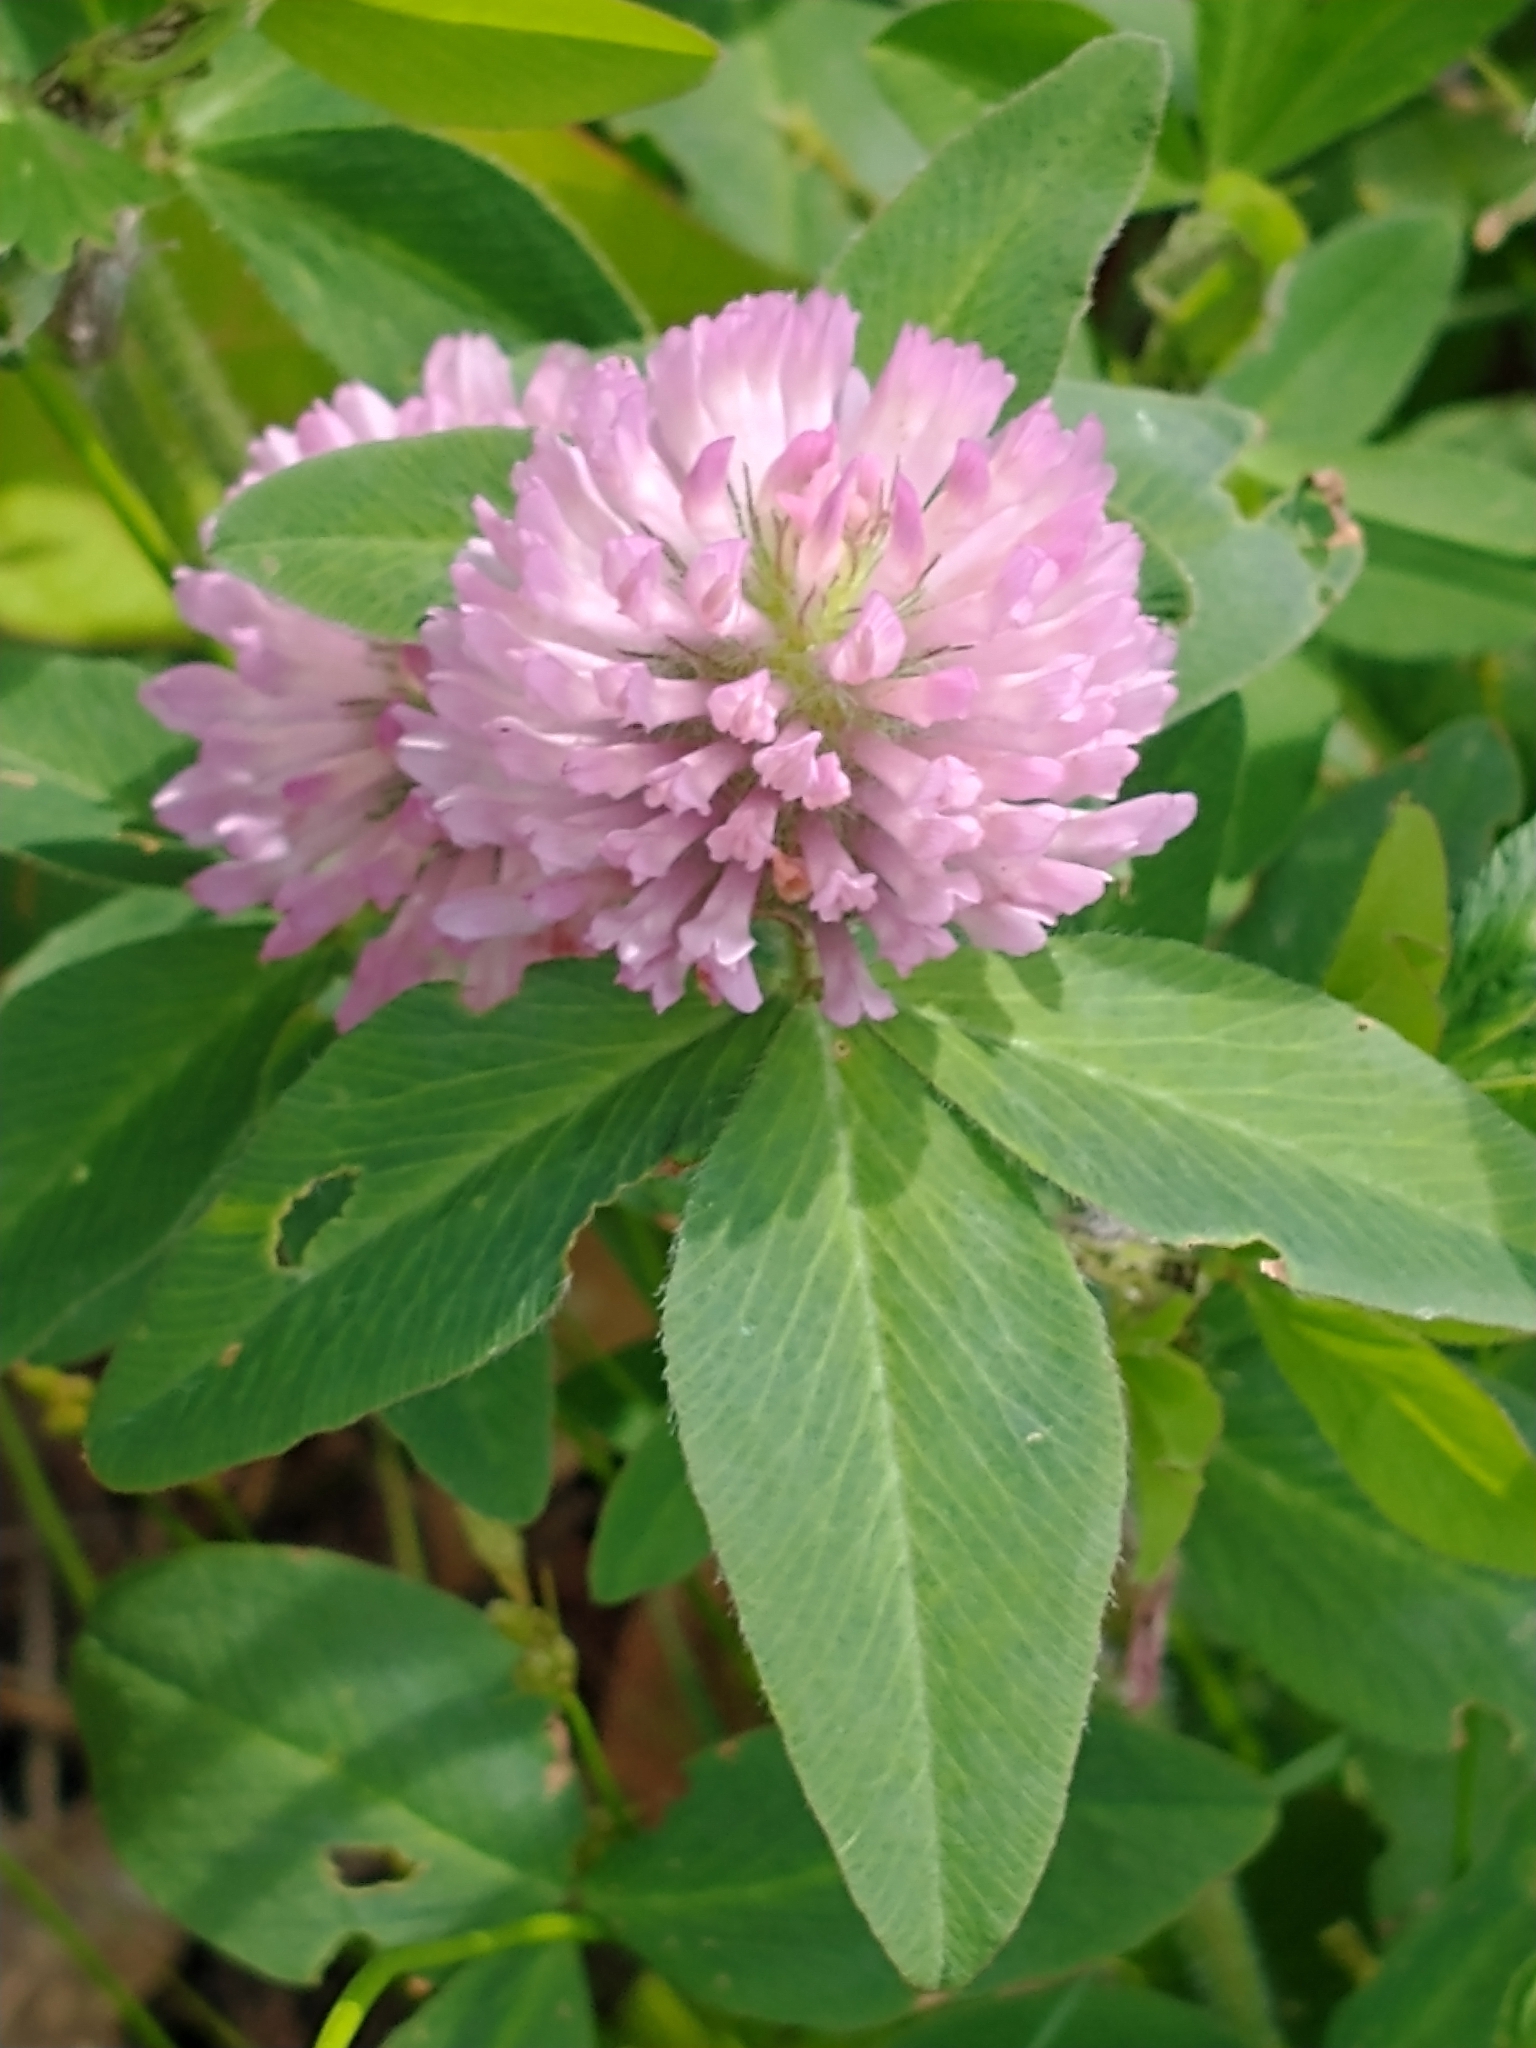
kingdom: Plantae
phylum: Tracheophyta
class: Magnoliopsida
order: Fabales
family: Fabaceae
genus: Trifolium
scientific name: Trifolium pratense
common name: Red clover
